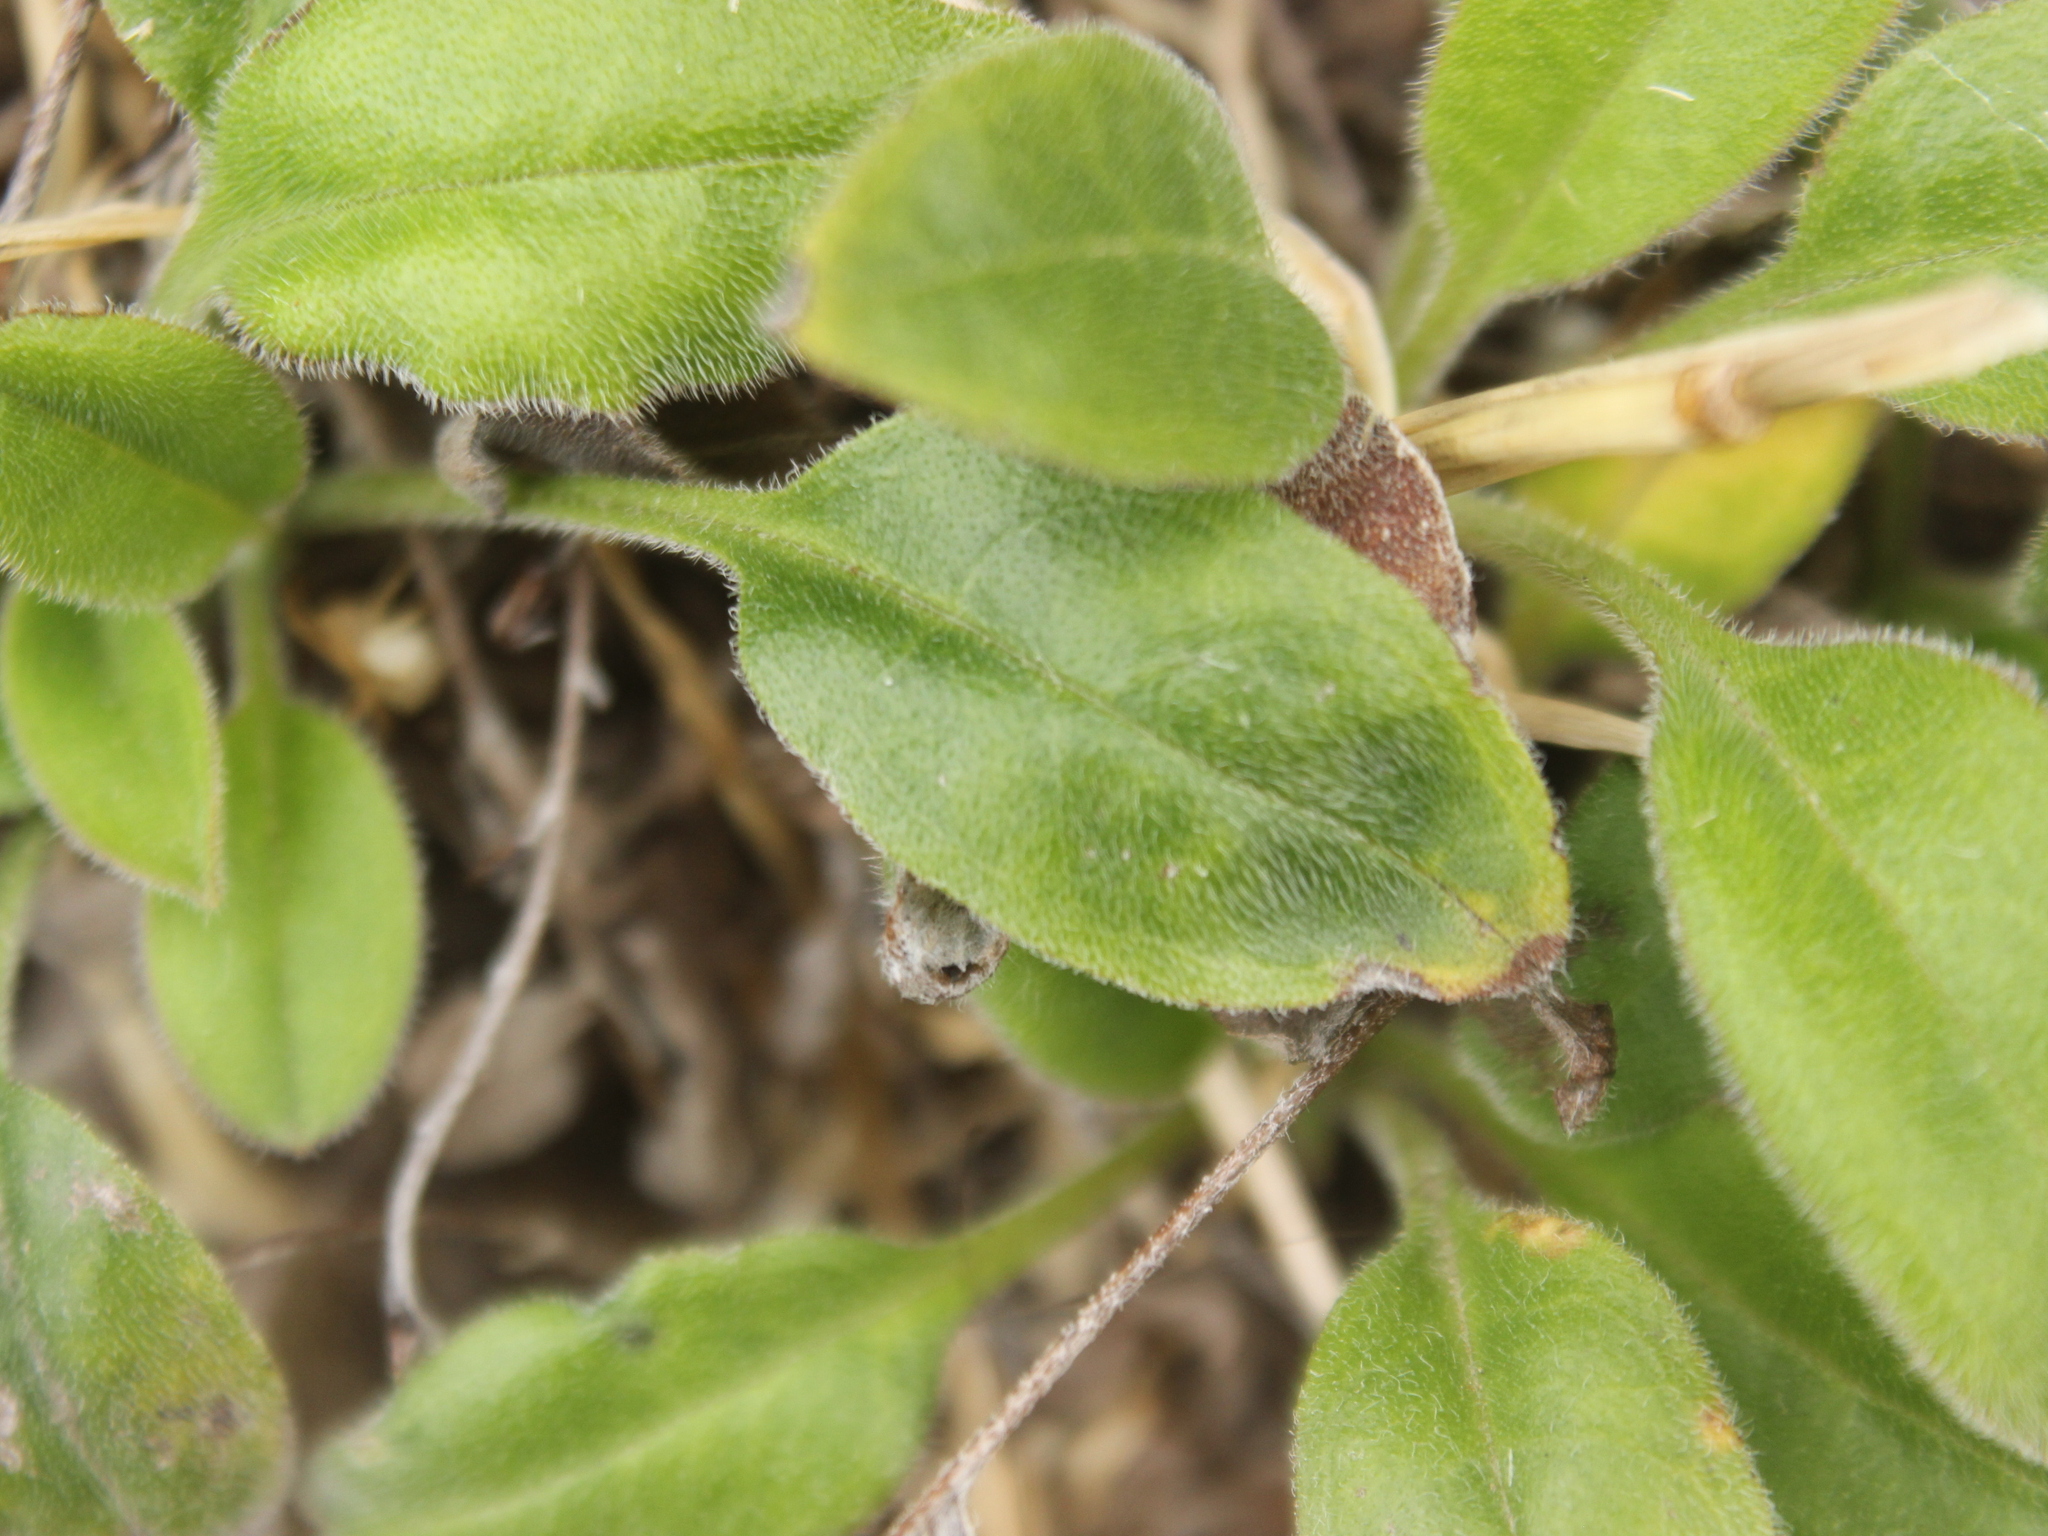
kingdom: Plantae
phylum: Tracheophyta
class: Magnoliopsida
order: Boraginales
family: Boraginaceae
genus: Myosotis
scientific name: Myosotis australis
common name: Australian forget-me-not
